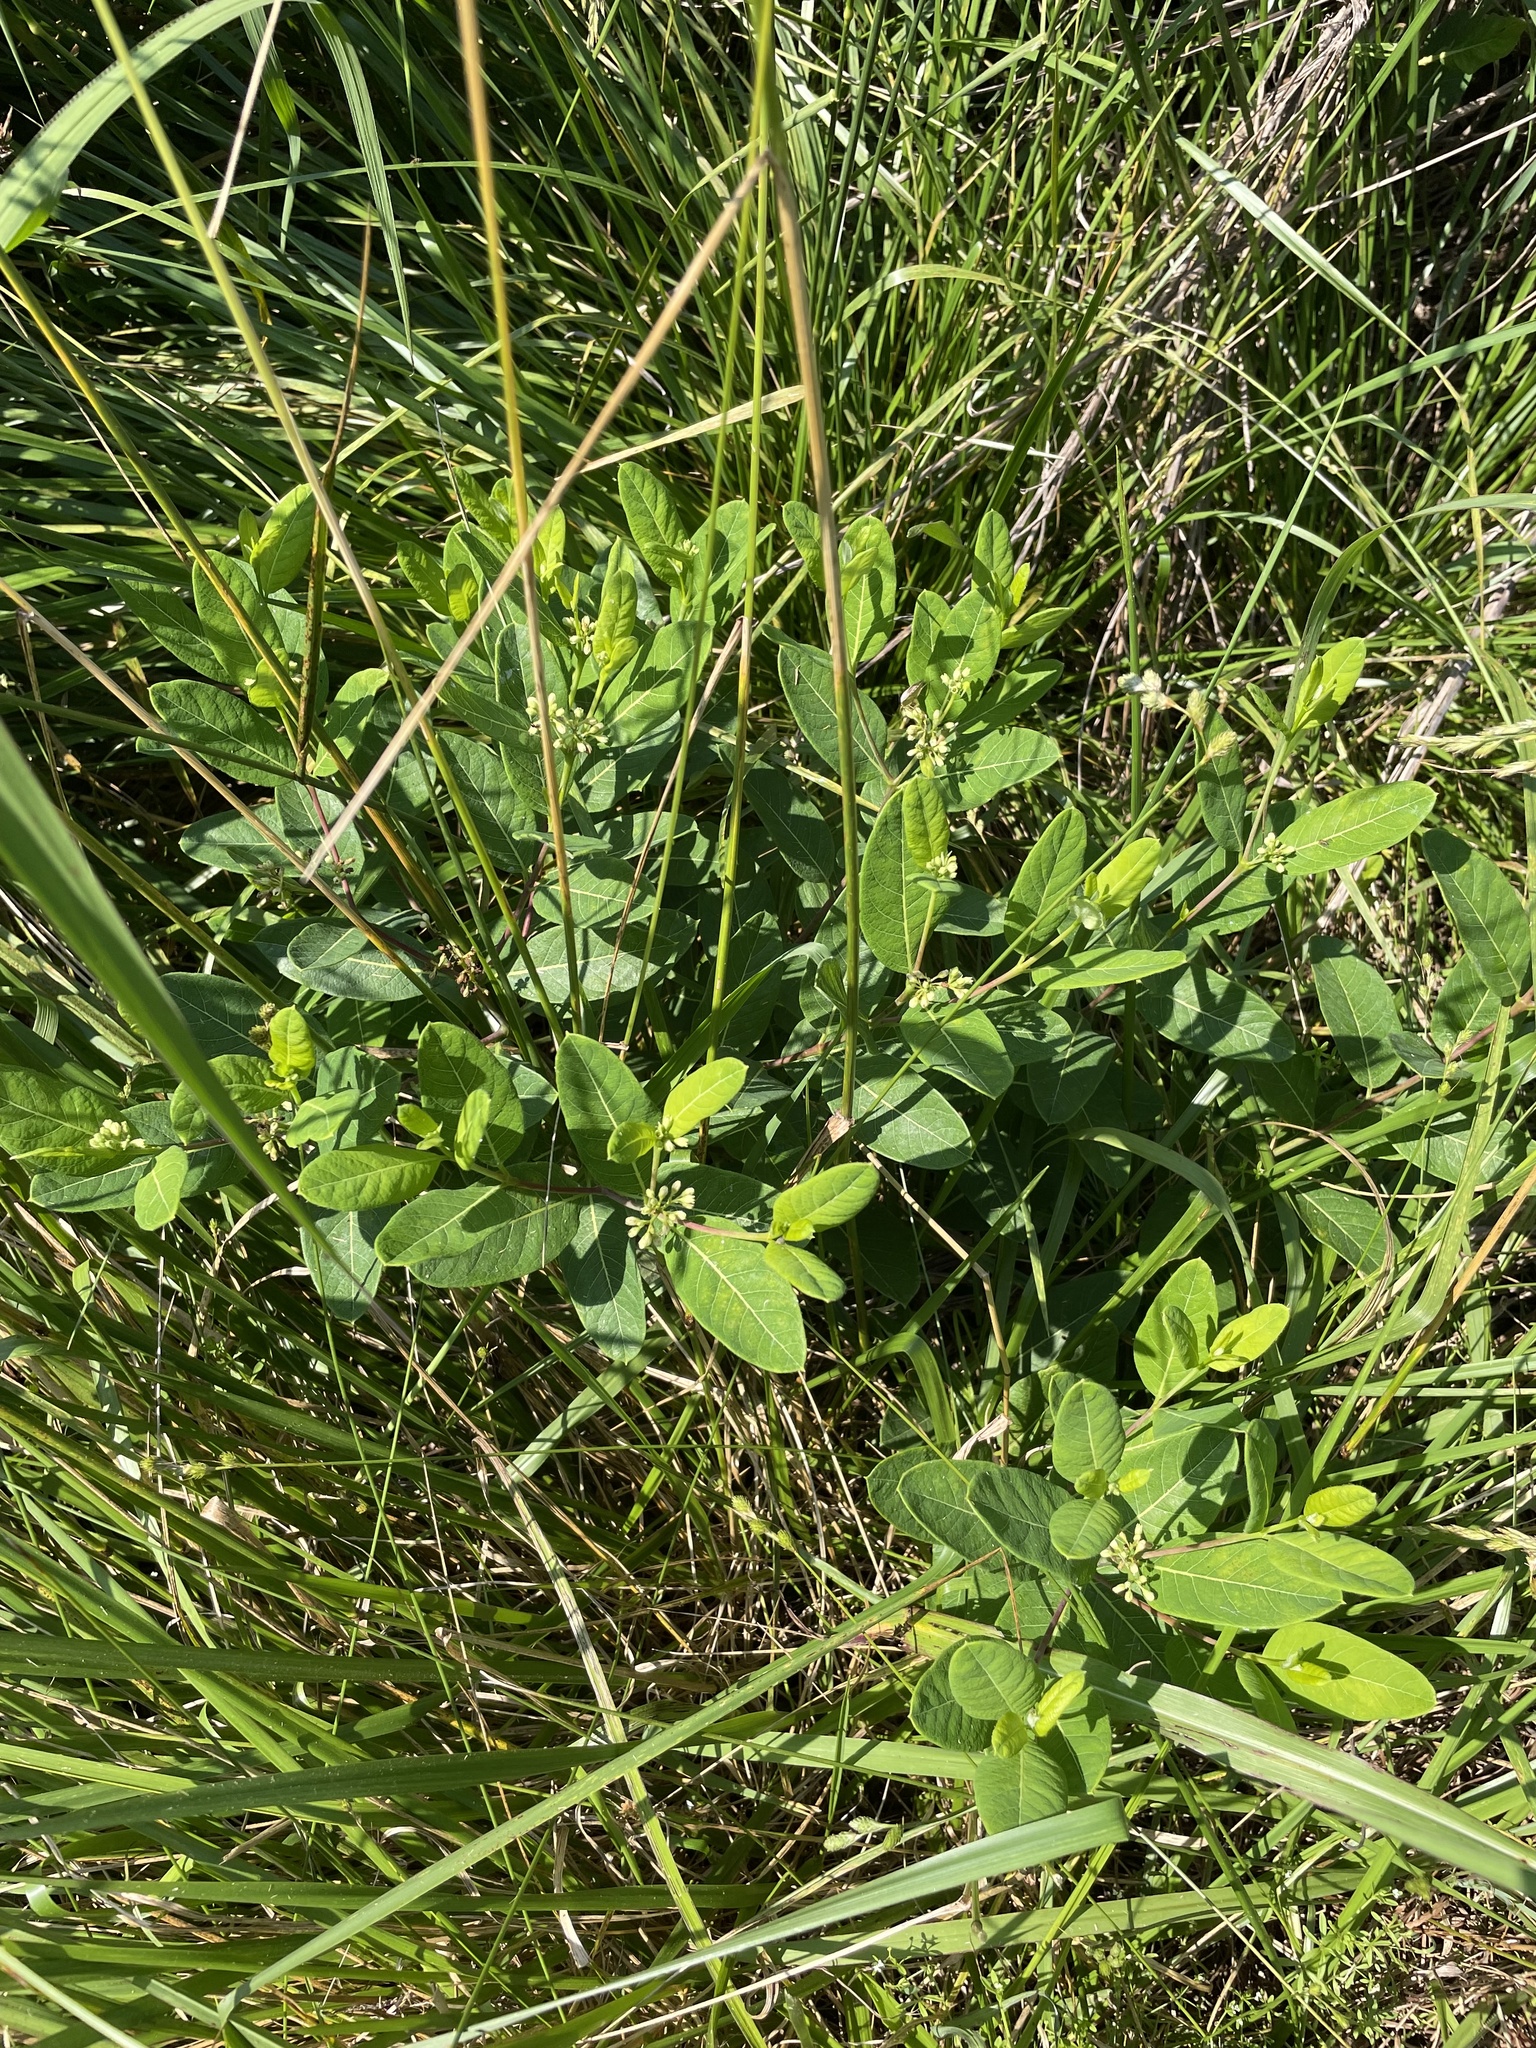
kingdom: Plantae
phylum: Tracheophyta
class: Magnoliopsida
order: Gentianales
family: Apocynaceae
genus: Apocynum
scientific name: Apocynum cannabinum
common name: Hemp dogbane
